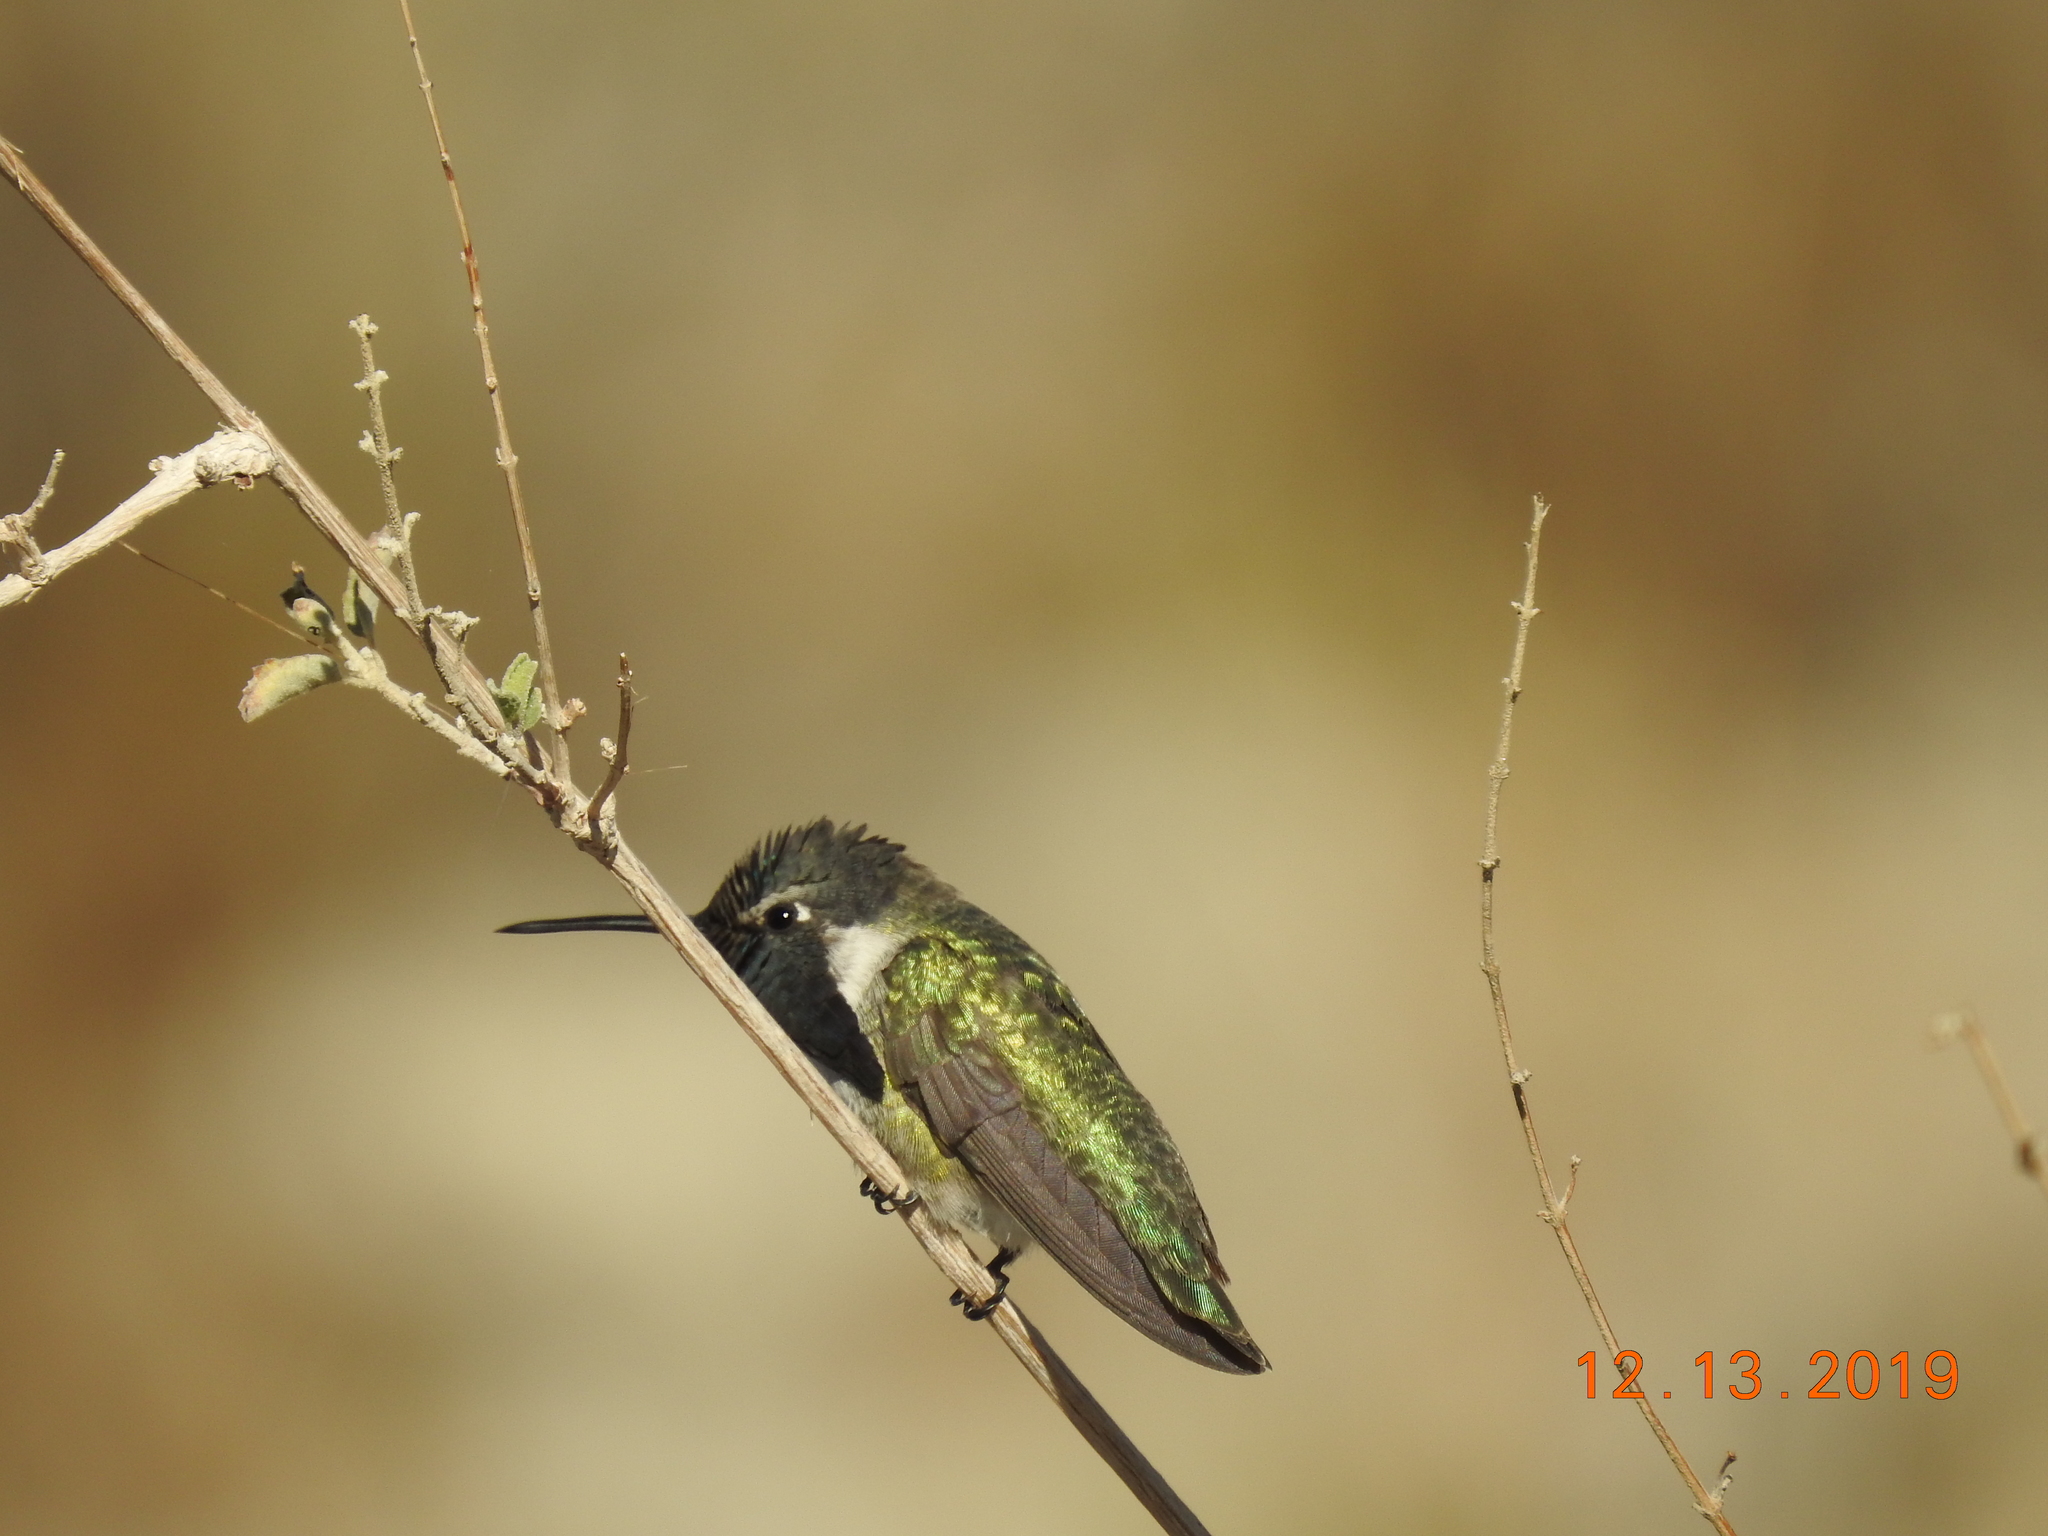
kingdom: Animalia
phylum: Chordata
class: Aves
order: Apodiformes
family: Trochilidae
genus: Calypte
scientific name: Calypte costae
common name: Costa's hummingbird
